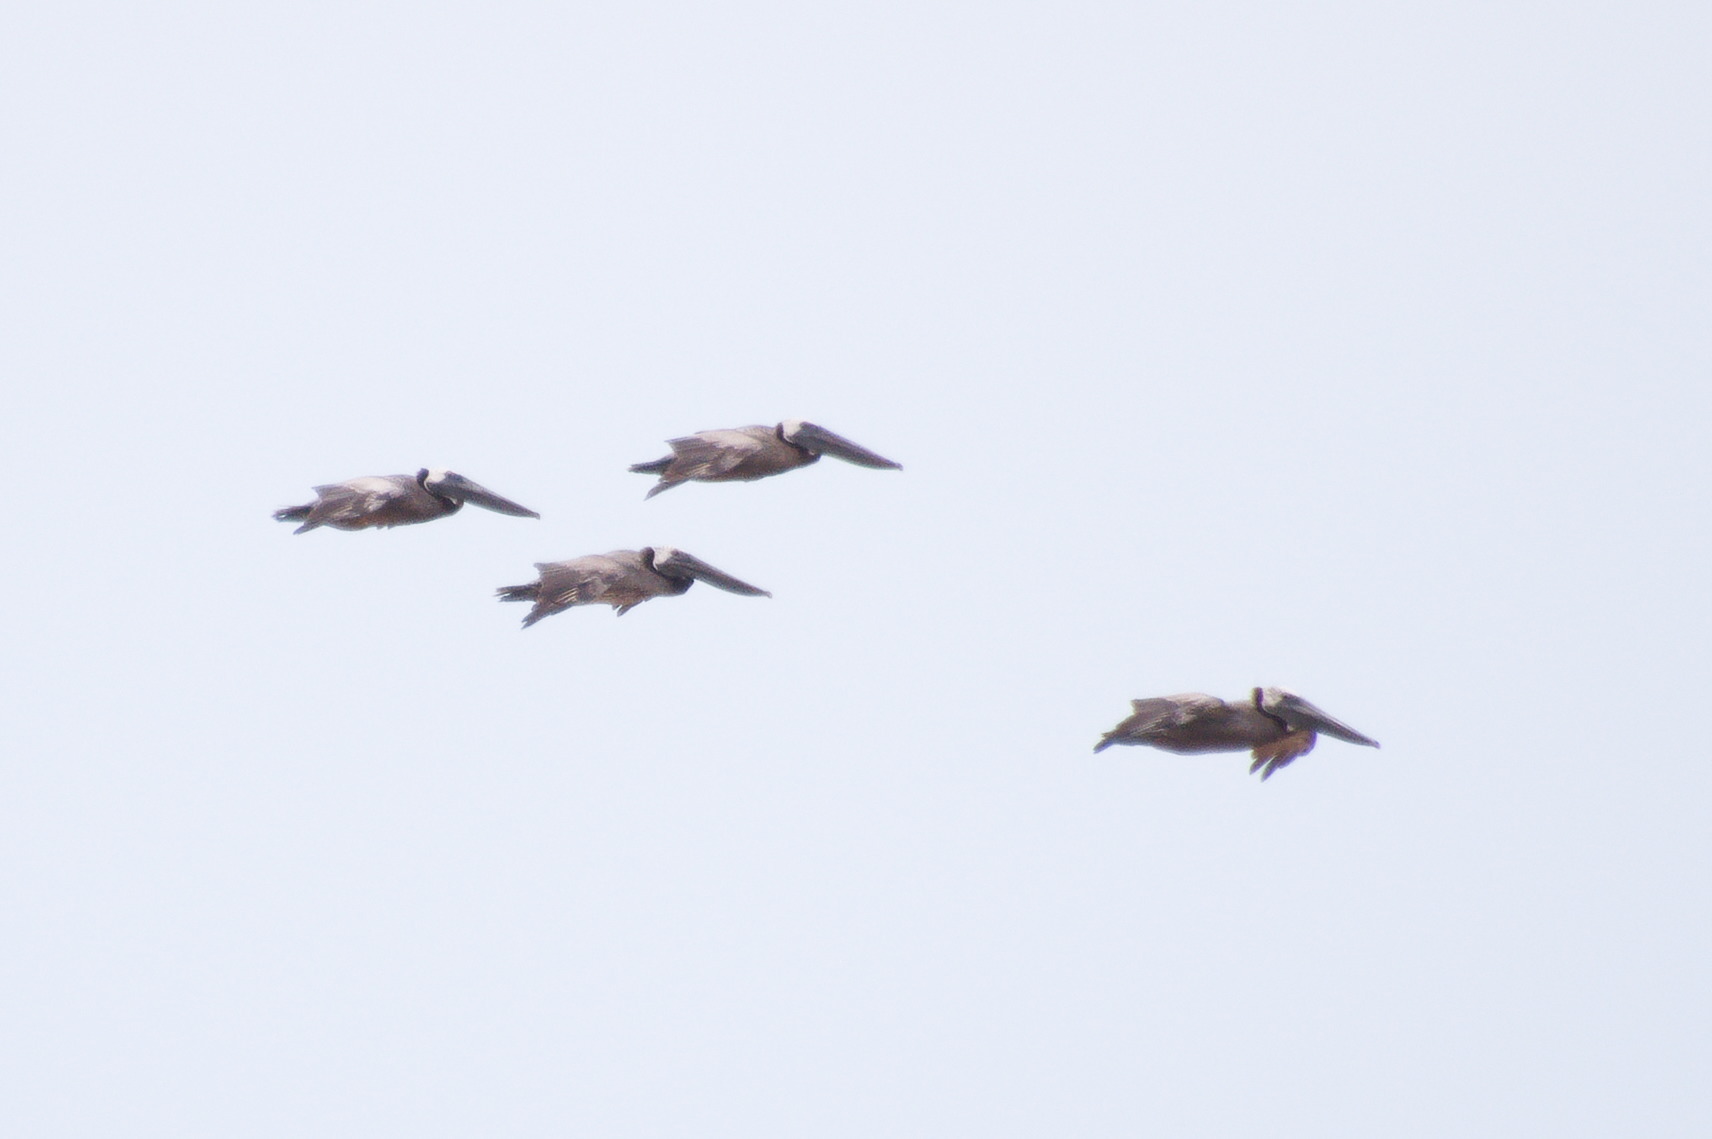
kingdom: Animalia
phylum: Chordata
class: Aves
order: Pelecaniformes
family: Pelecanidae
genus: Pelecanus
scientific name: Pelecanus occidentalis
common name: Brown pelican
